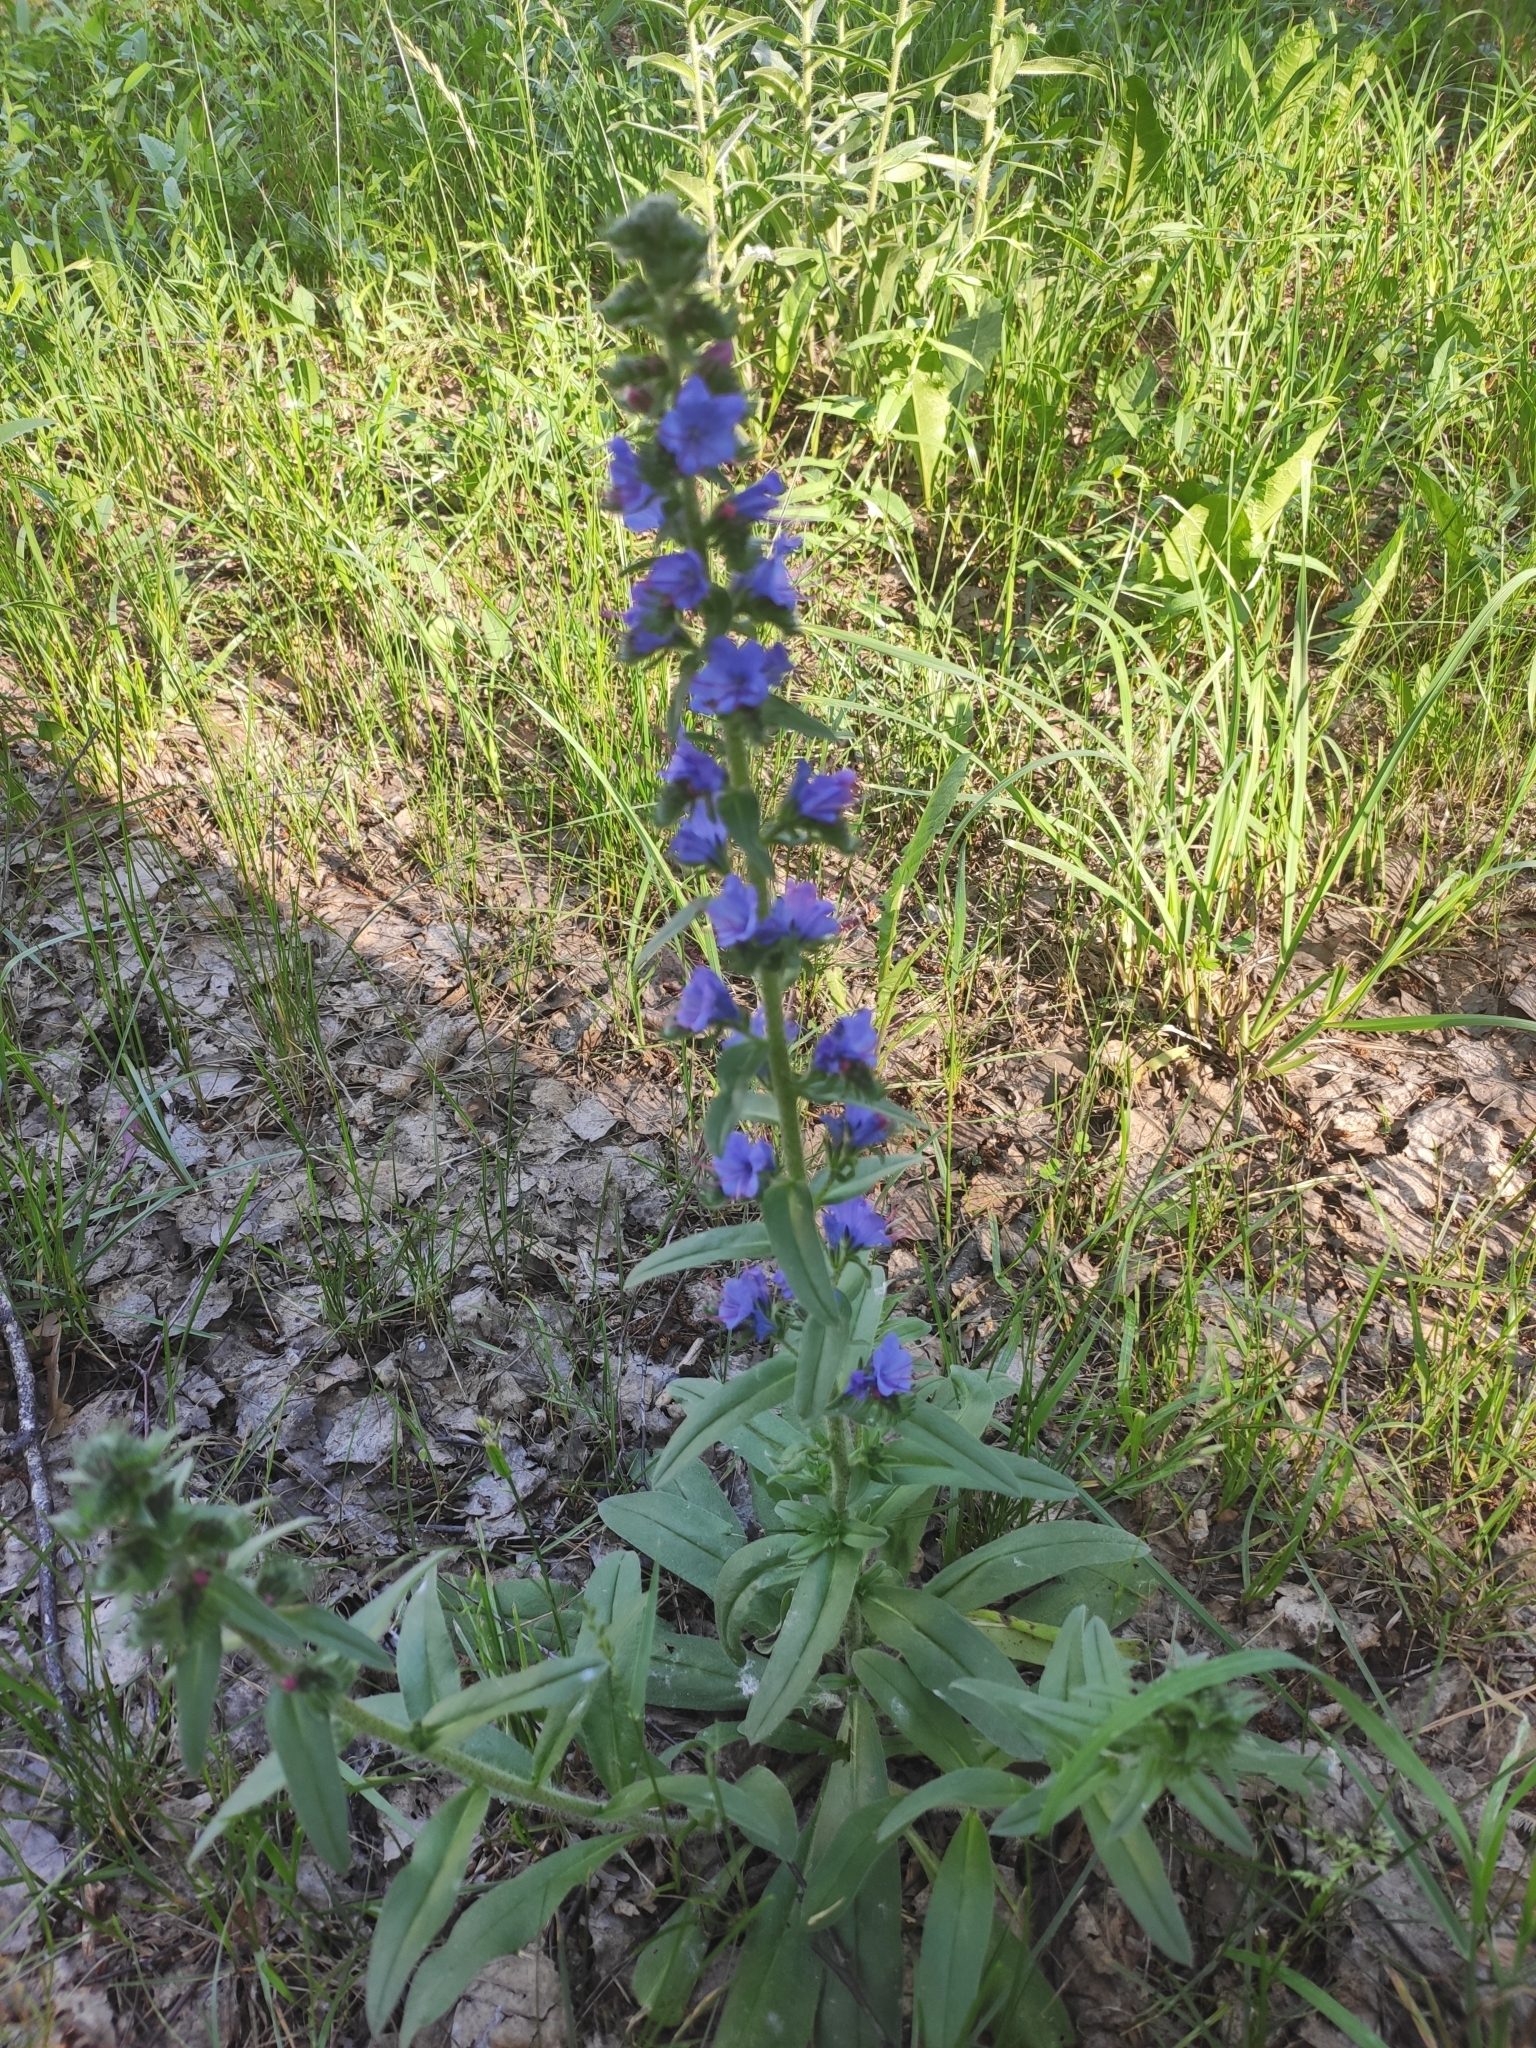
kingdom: Plantae
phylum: Tracheophyta
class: Magnoliopsida
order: Boraginales
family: Boraginaceae
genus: Echium
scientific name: Echium vulgare
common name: Common viper's bugloss
